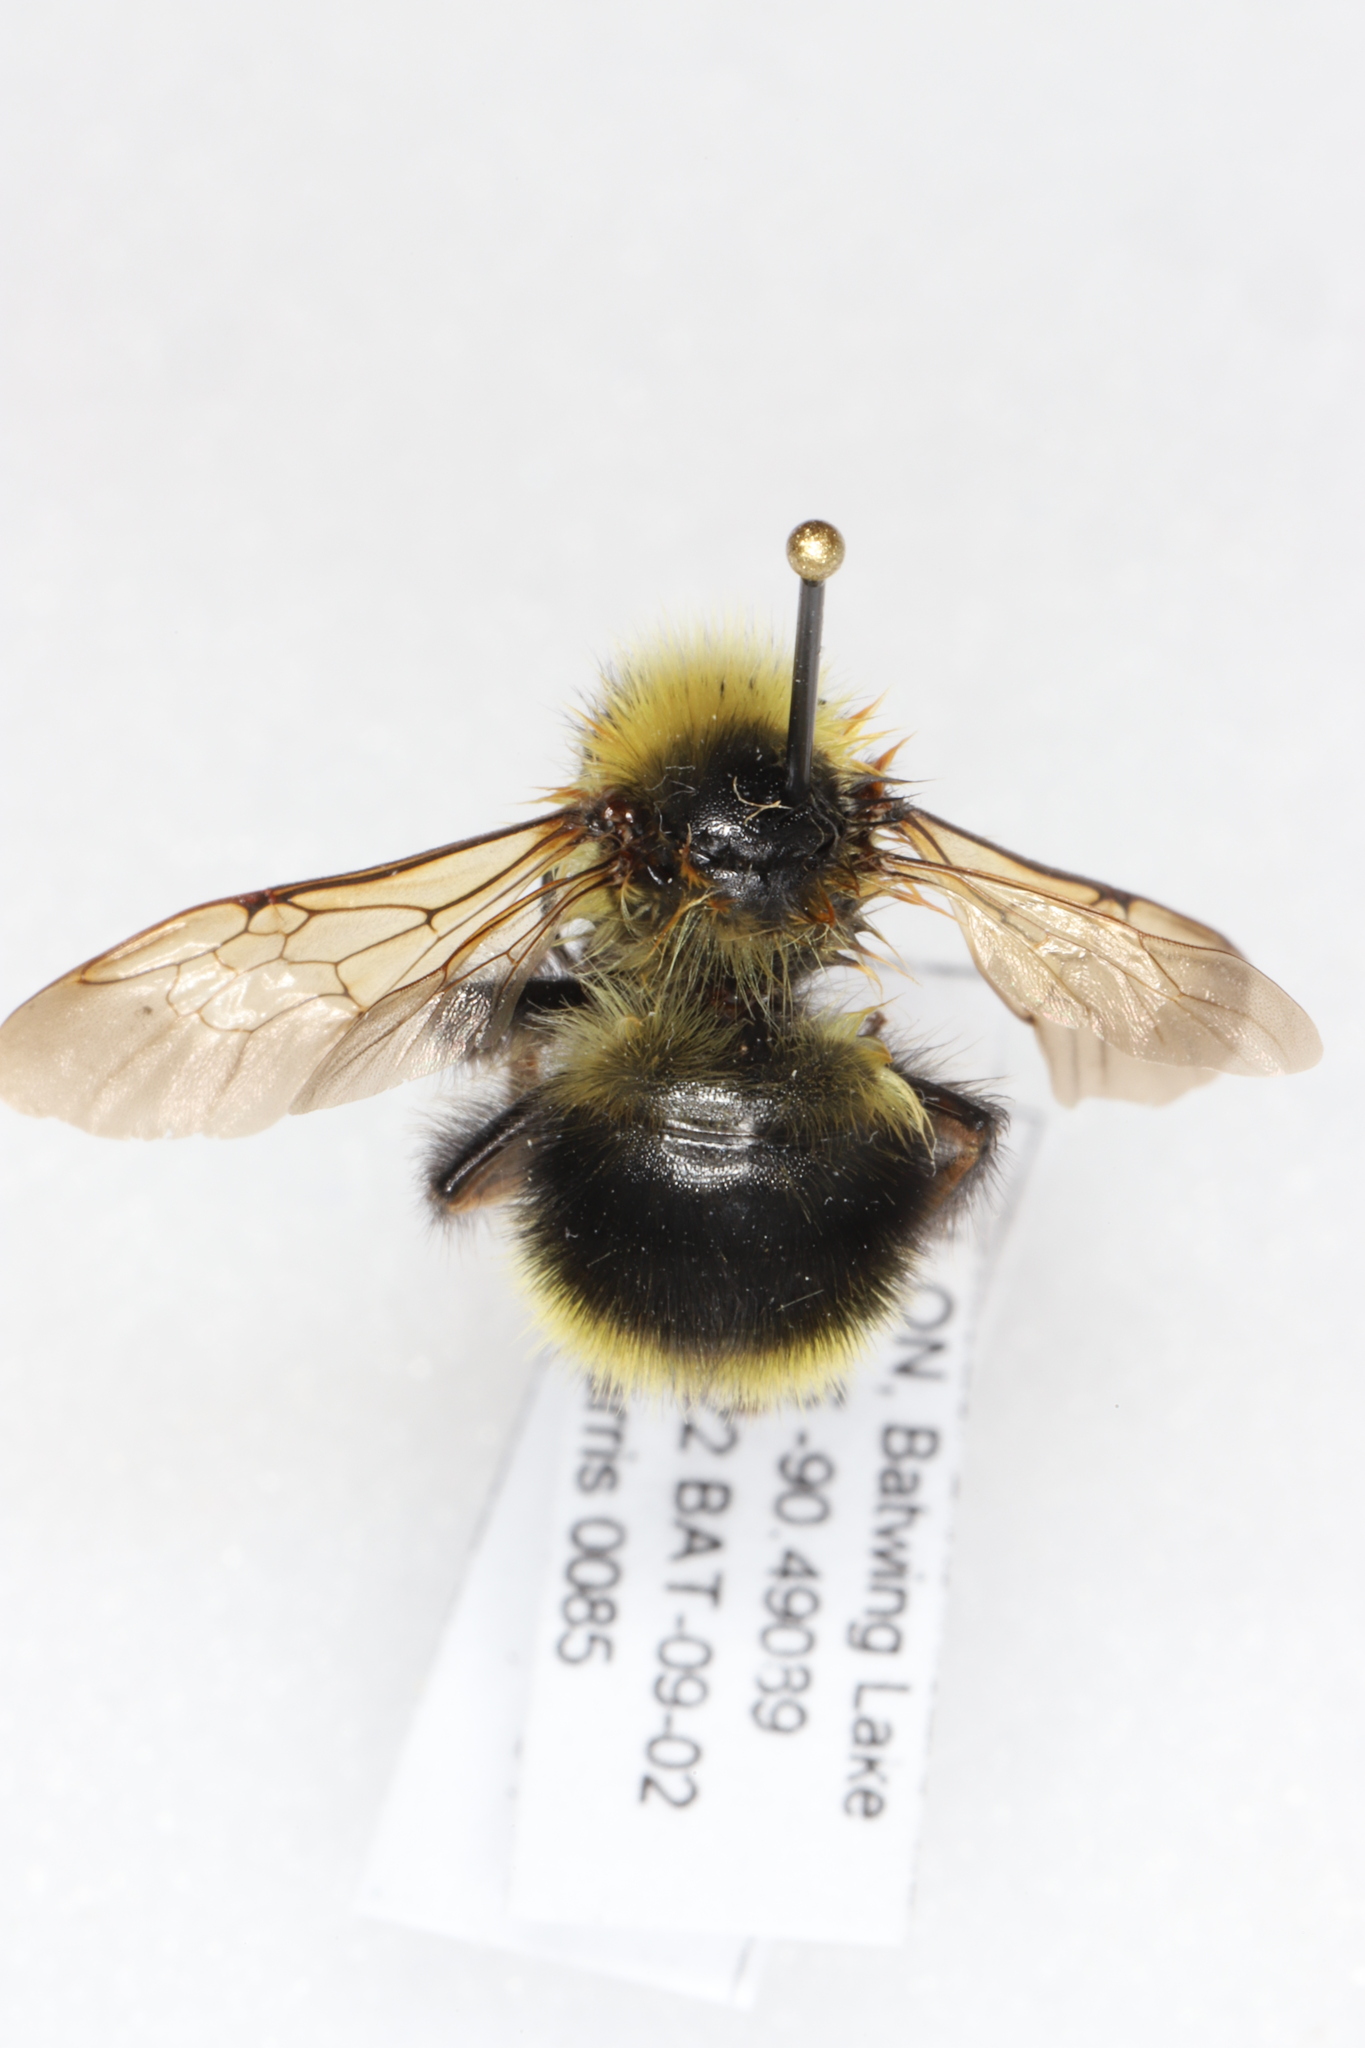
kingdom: Animalia
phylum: Arthropoda
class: Insecta
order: Hymenoptera
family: Apidae
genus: Bombus
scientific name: Bombus flavidus
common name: Fernald cuckoo bumble bee
